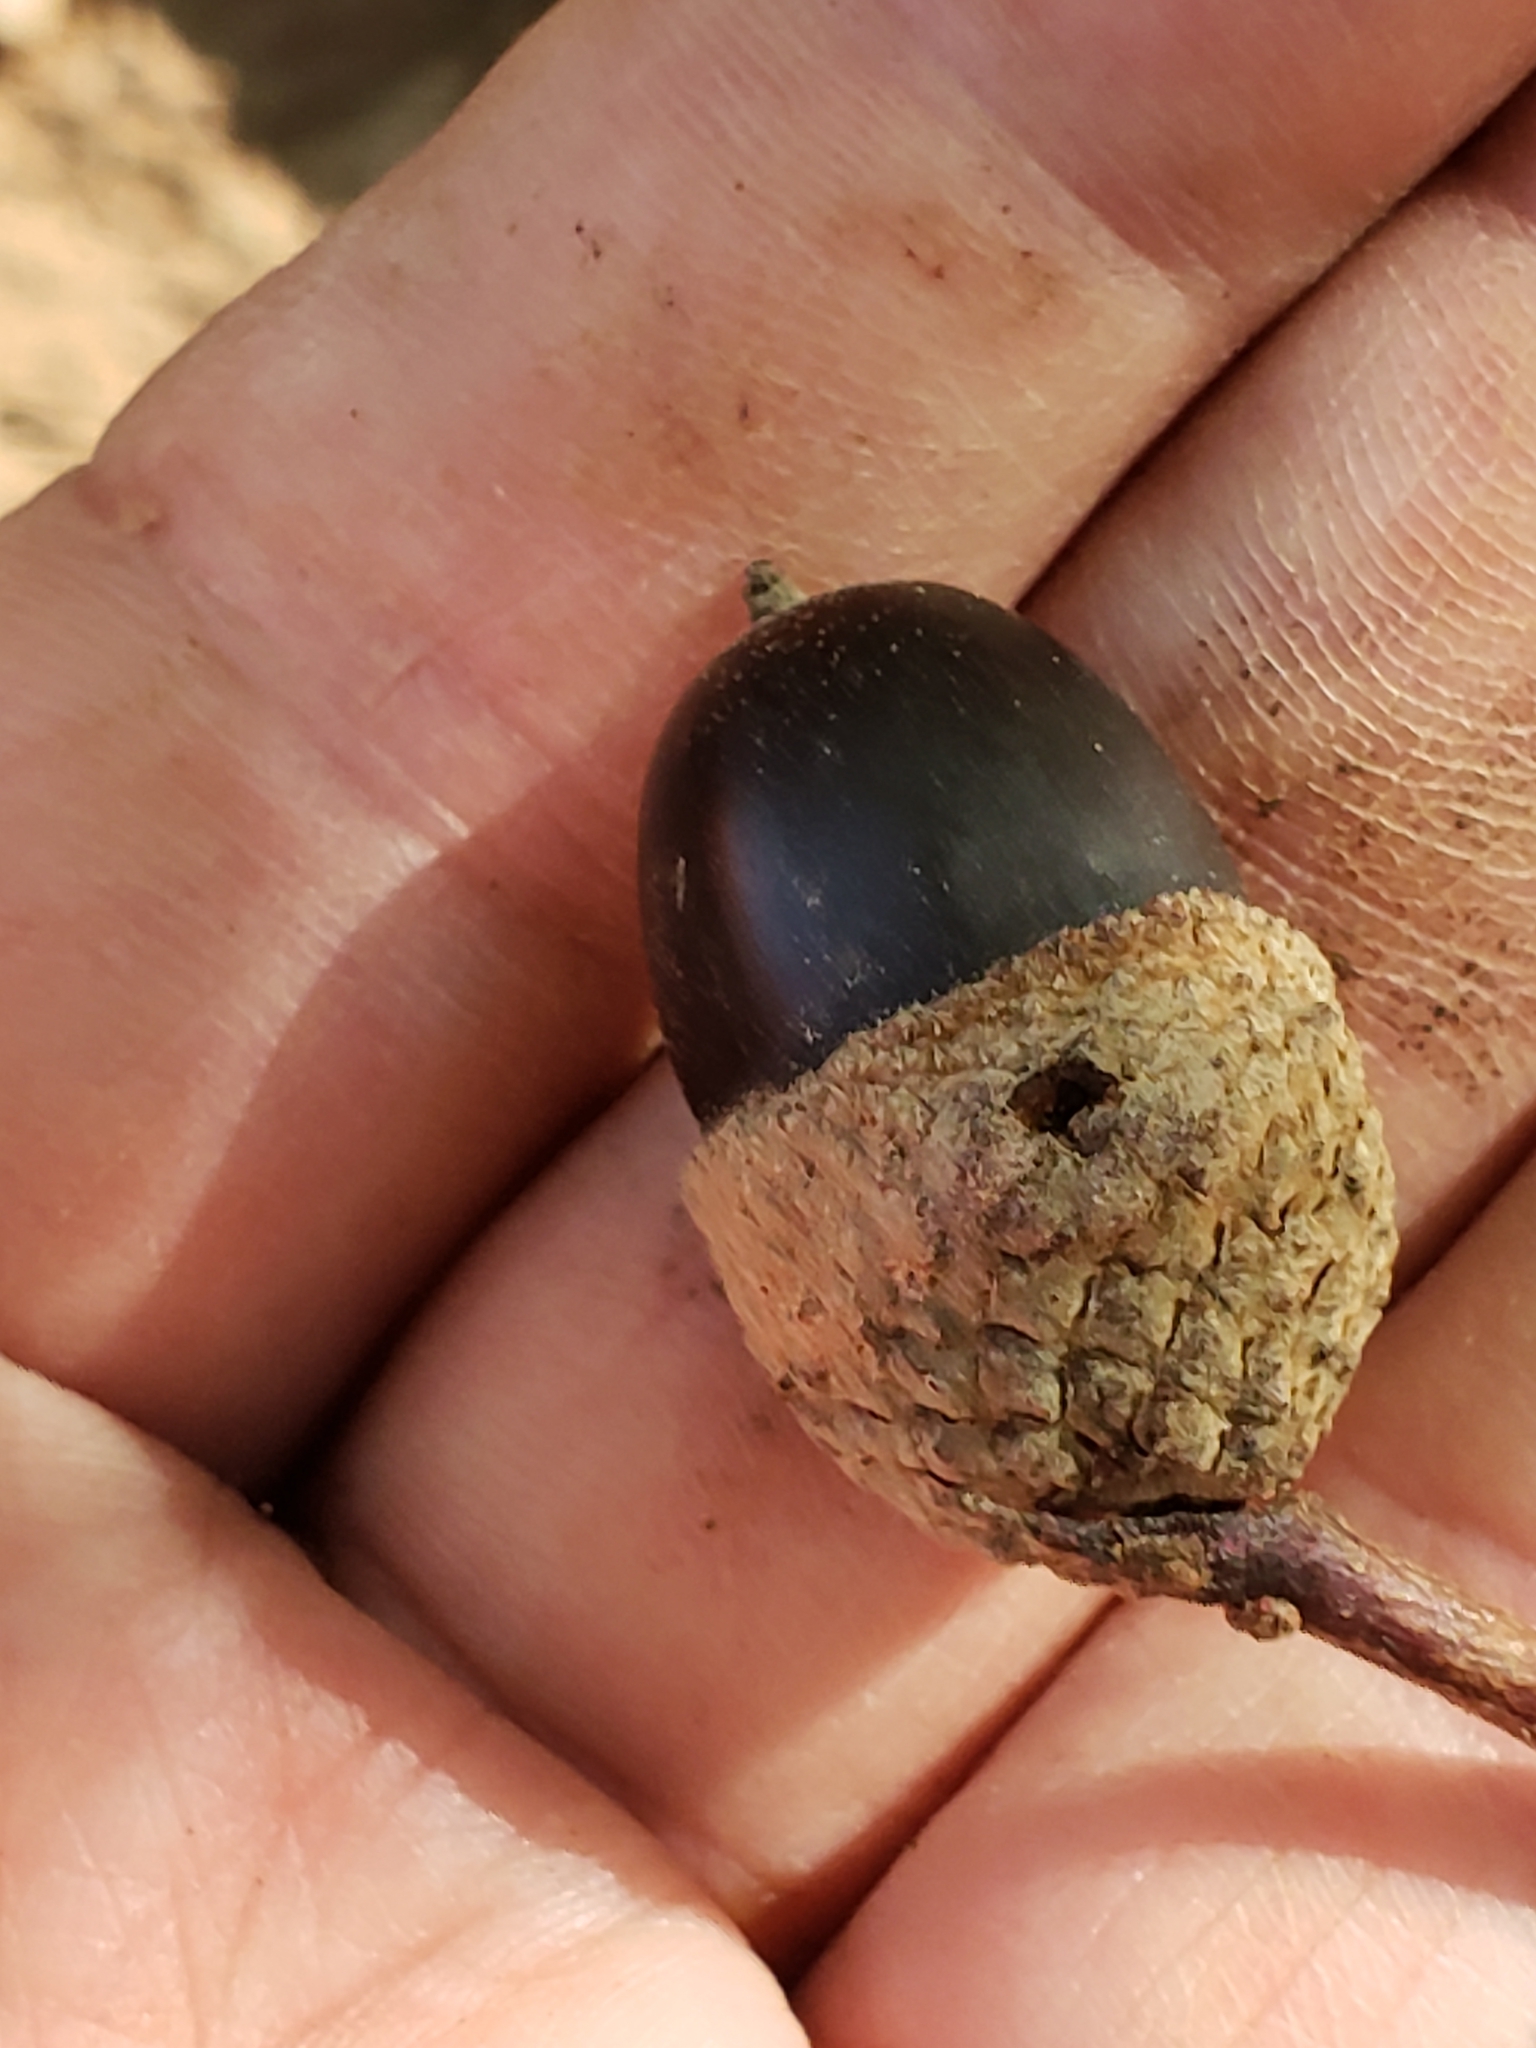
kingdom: Plantae
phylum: Tracheophyta
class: Magnoliopsida
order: Fagales
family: Fagaceae
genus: Quercus
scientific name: Quercus montana
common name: Chestnut oak
